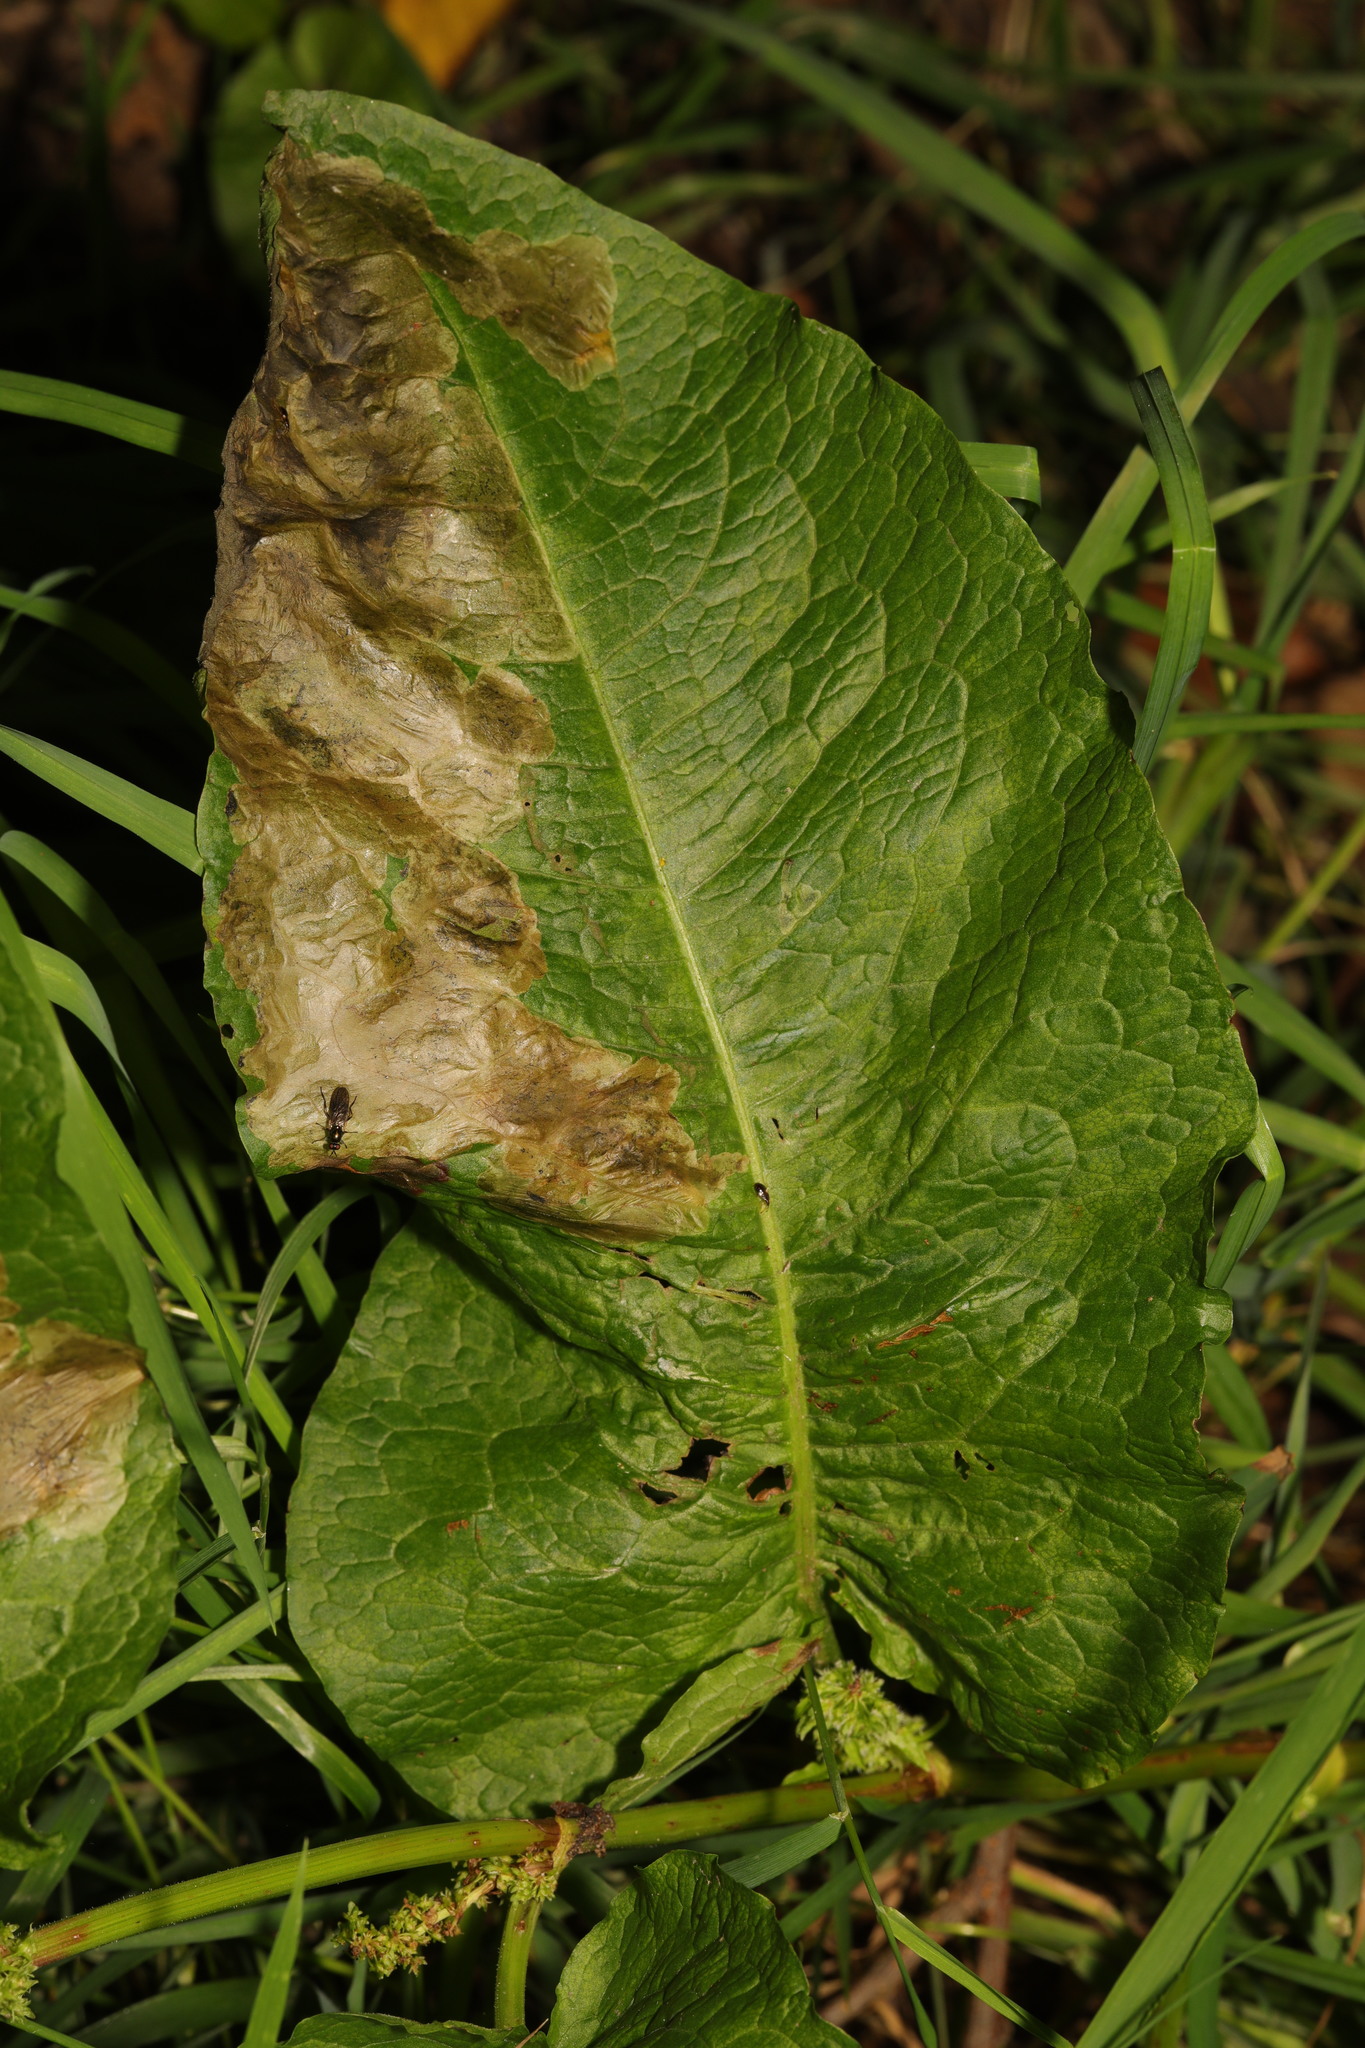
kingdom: Plantae
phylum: Tracheophyta
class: Magnoliopsida
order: Caryophyllales
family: Polygonaceae
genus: Rumex
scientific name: Rumex obtusifolius
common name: Bitter dock
